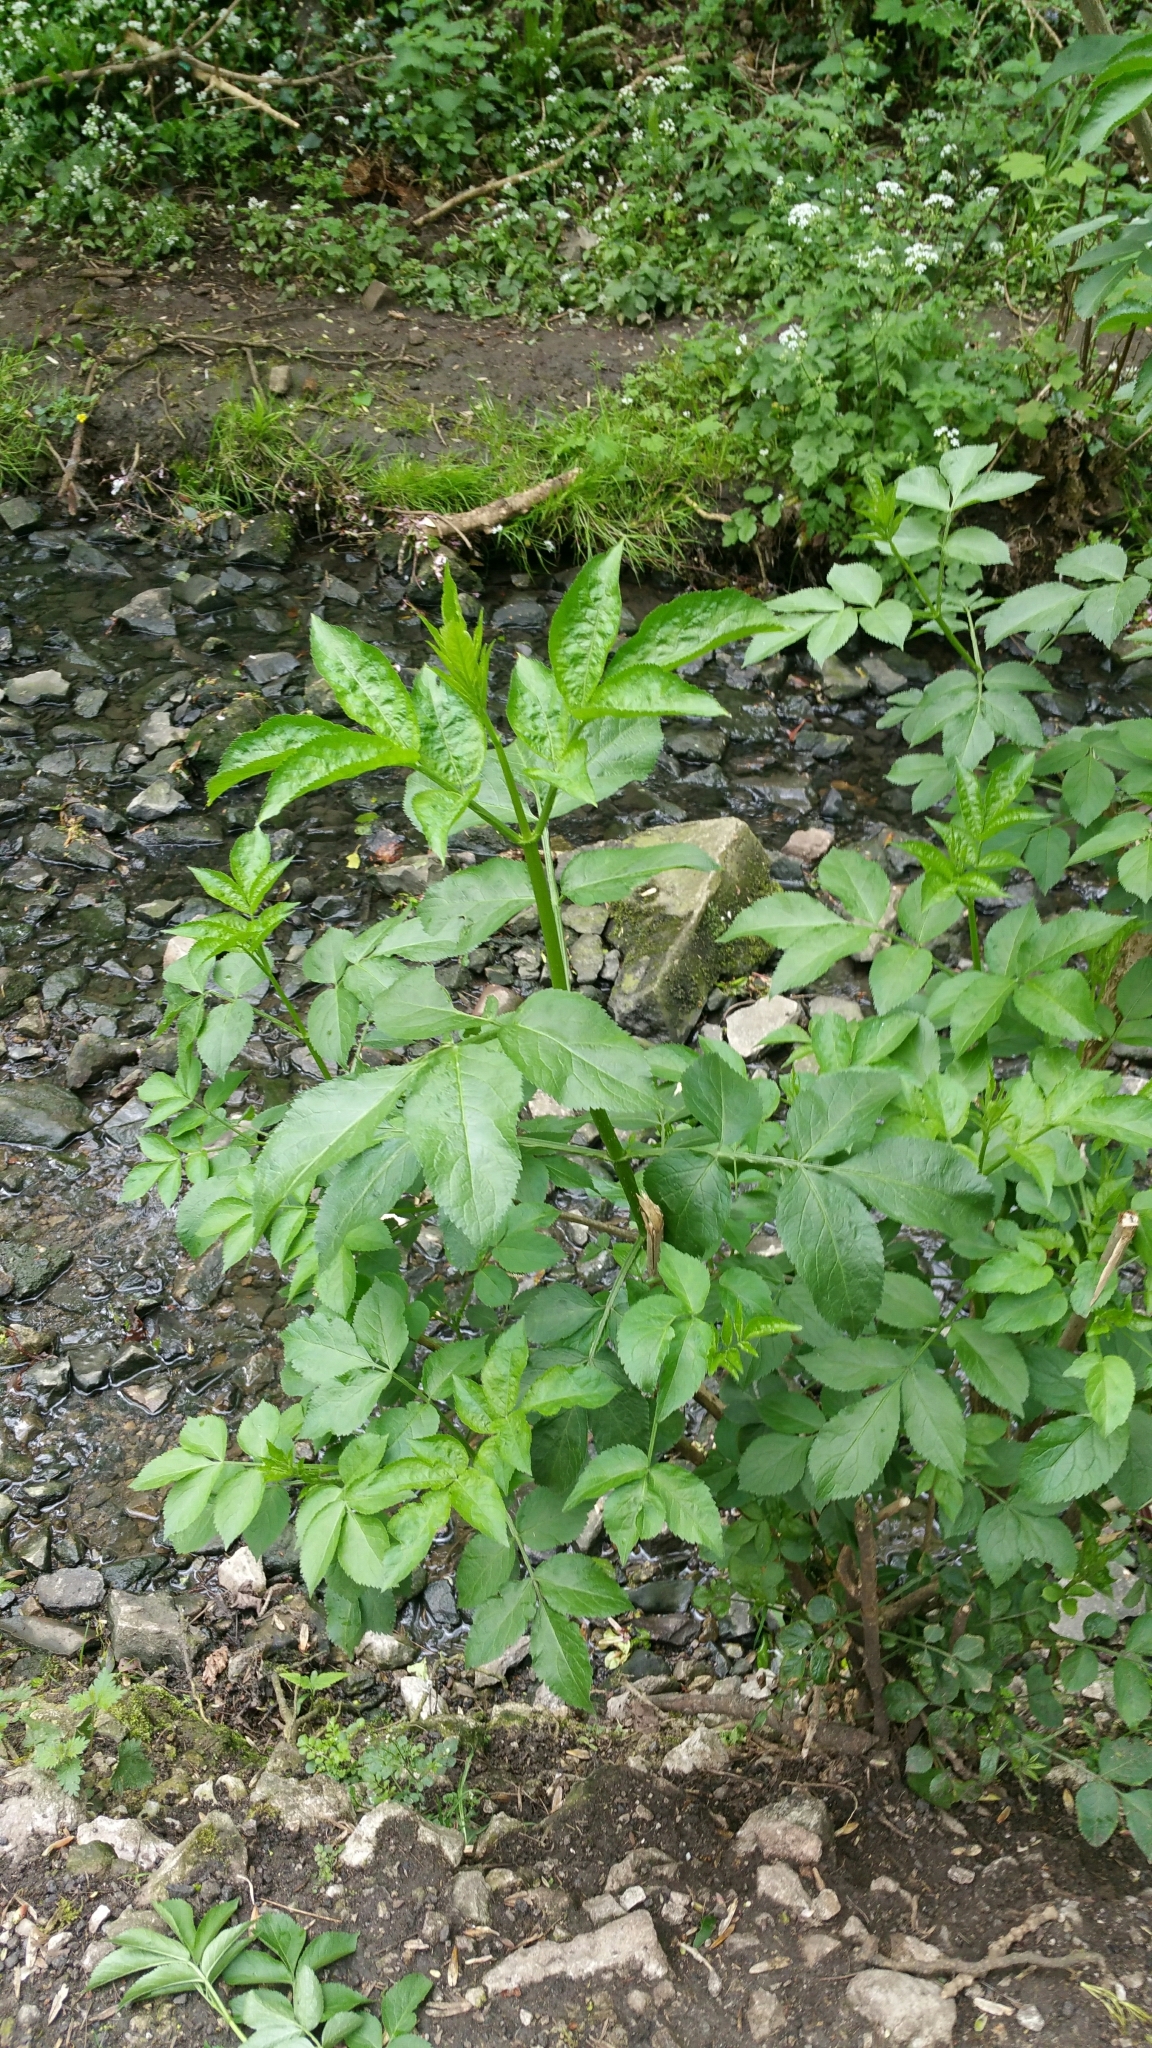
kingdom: Plantae
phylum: Tracheophyta
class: Magnoliopsida
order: Dipsacales
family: Viburnaceae
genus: Sambucus
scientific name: Sambucus nigra
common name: Elder
